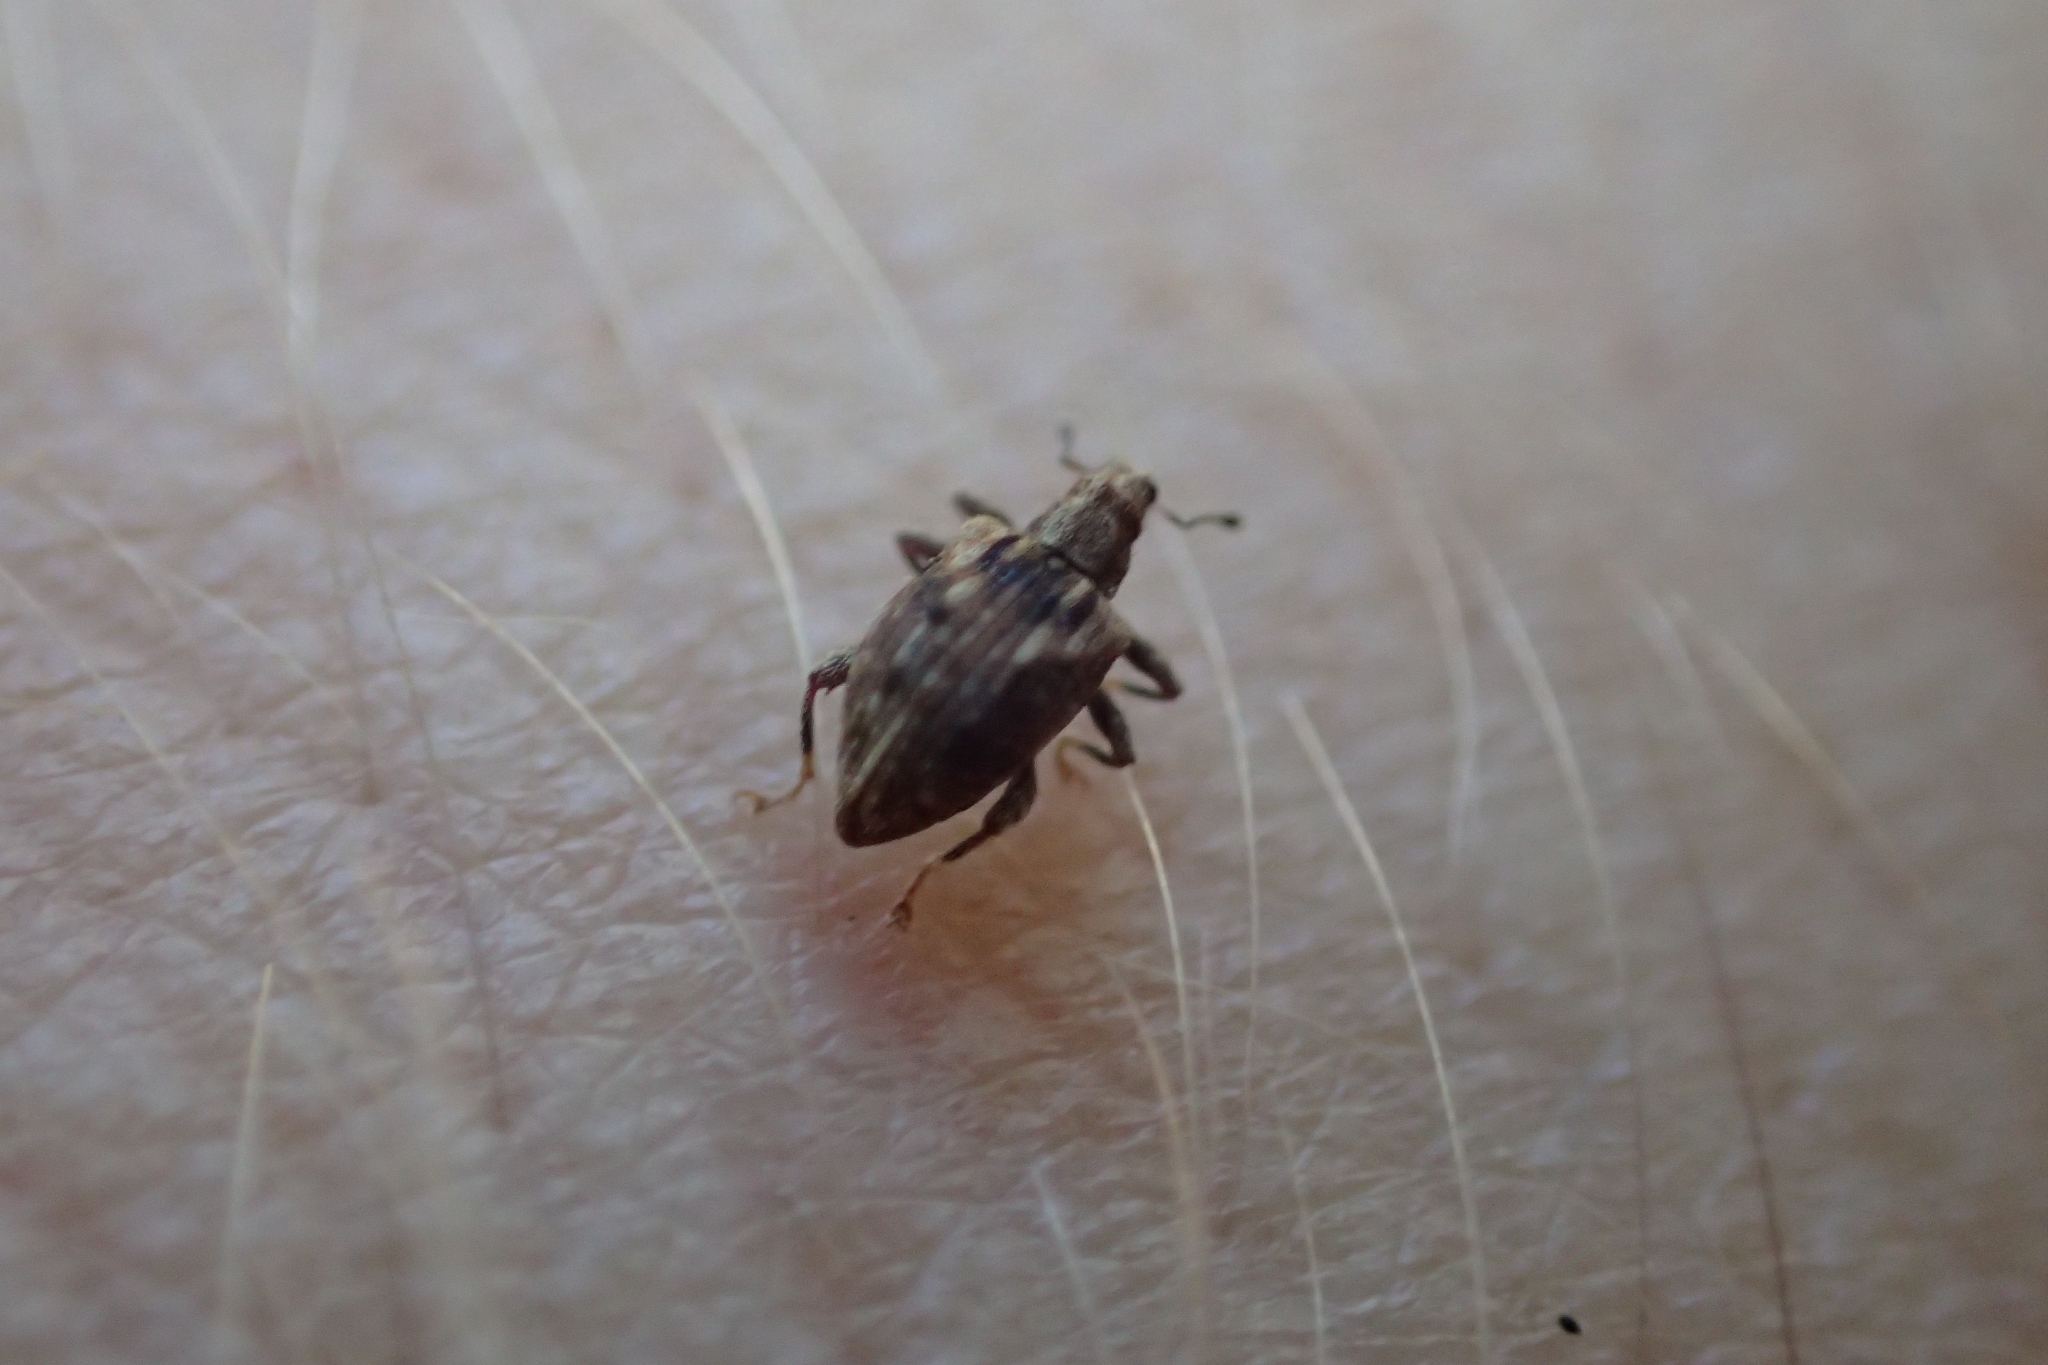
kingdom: Animalia
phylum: Arthropoda
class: Insecta
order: Coleoptera
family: Curculionidae
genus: Tysius
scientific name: Tysius bicornis
